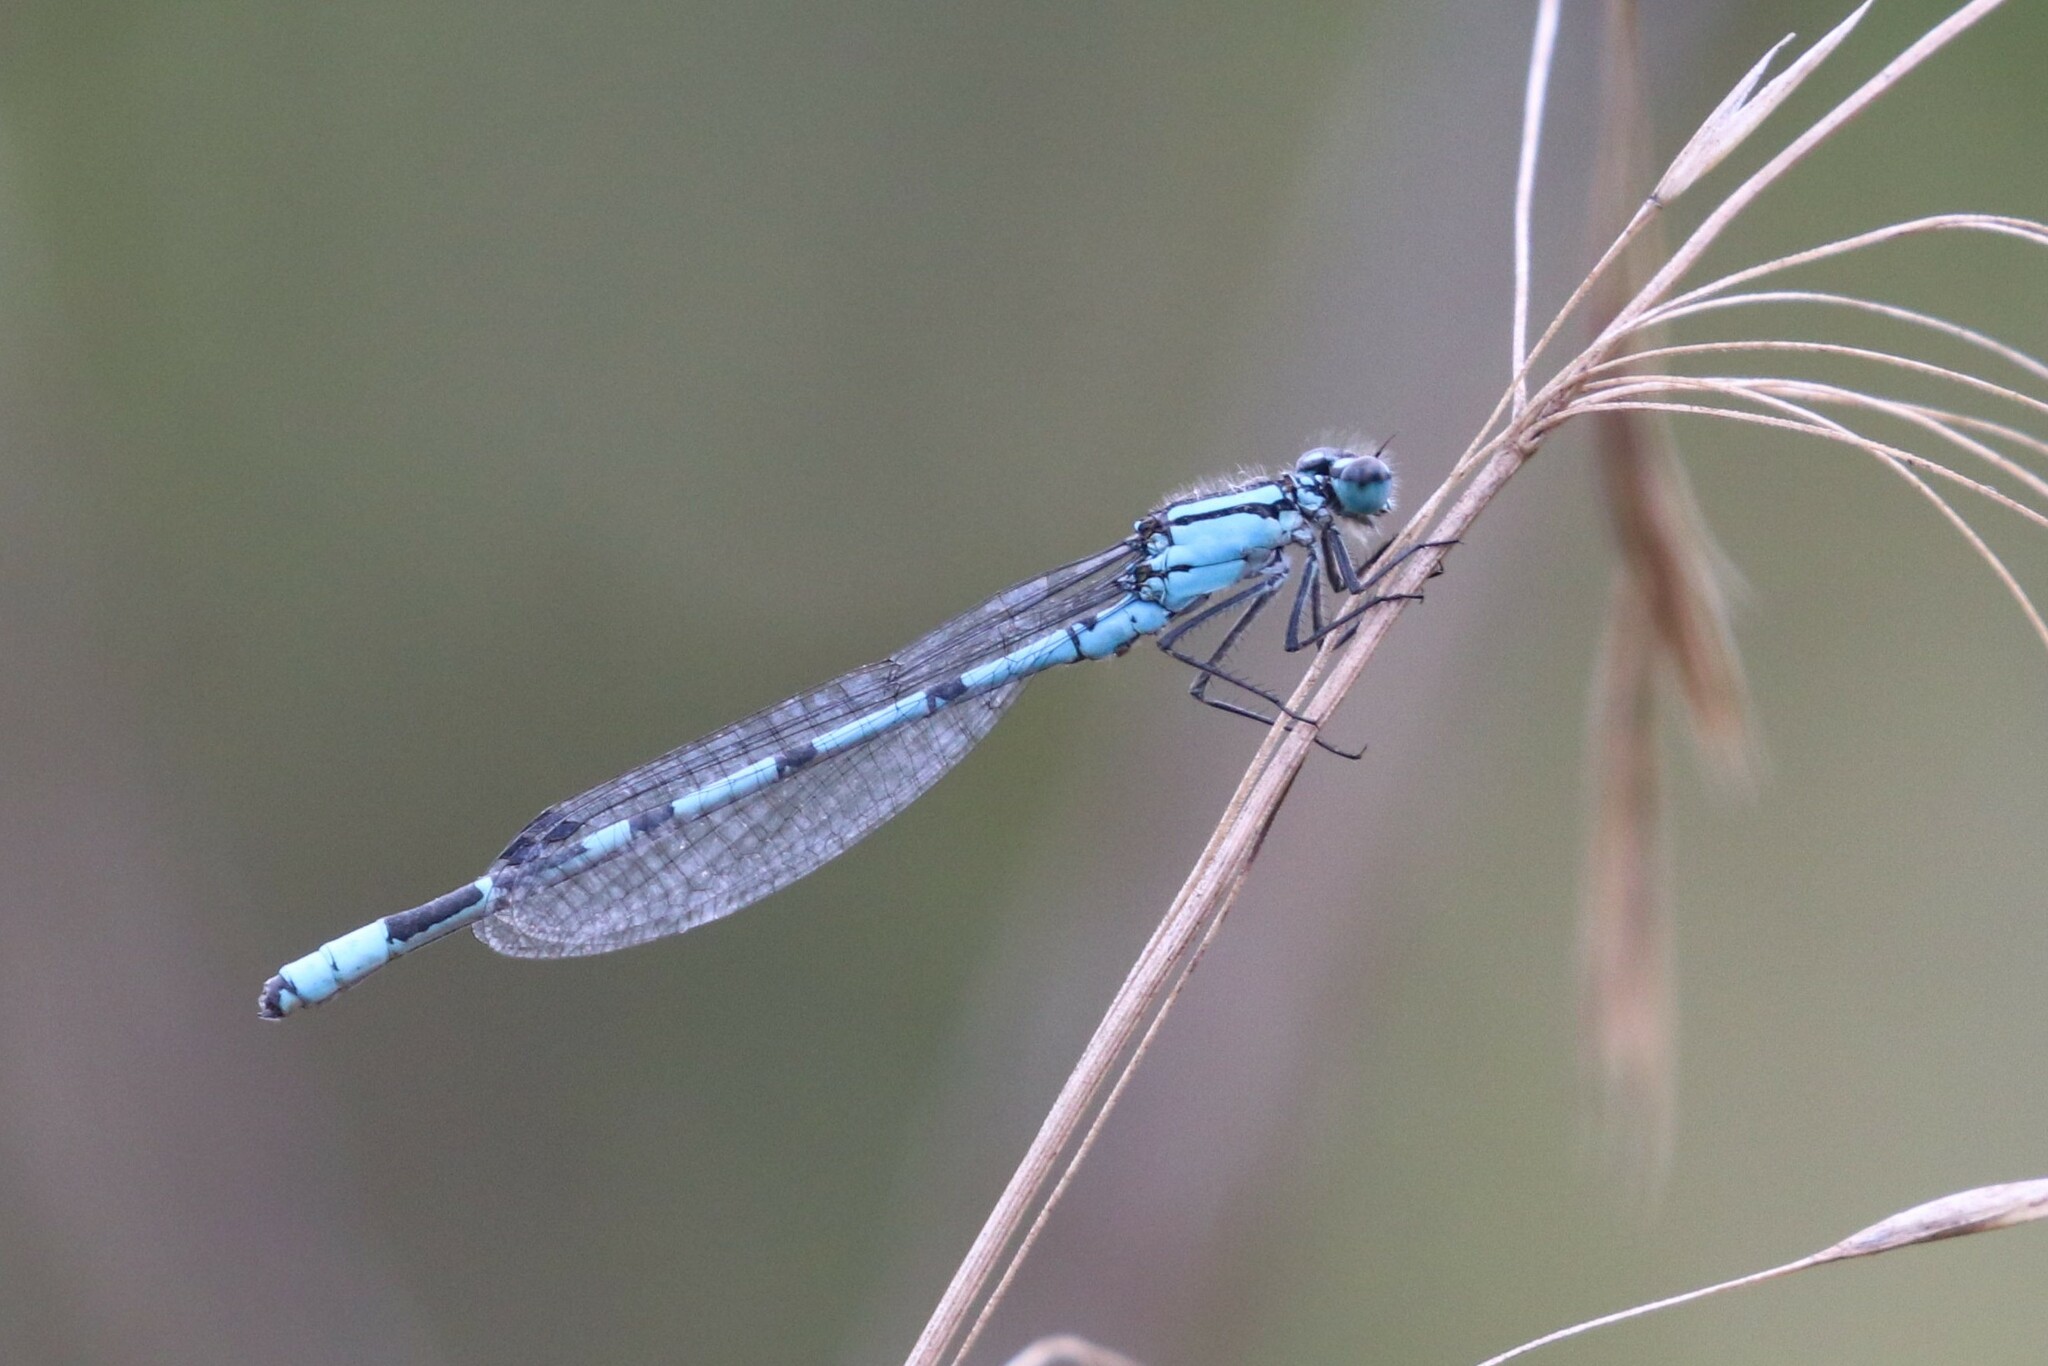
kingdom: Animalia
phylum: Arthropoda
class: Insecta
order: Odonata
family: Coenagrionidae
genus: Enallagma
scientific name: Enallagma cyathigerum
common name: Common blue damselfly
